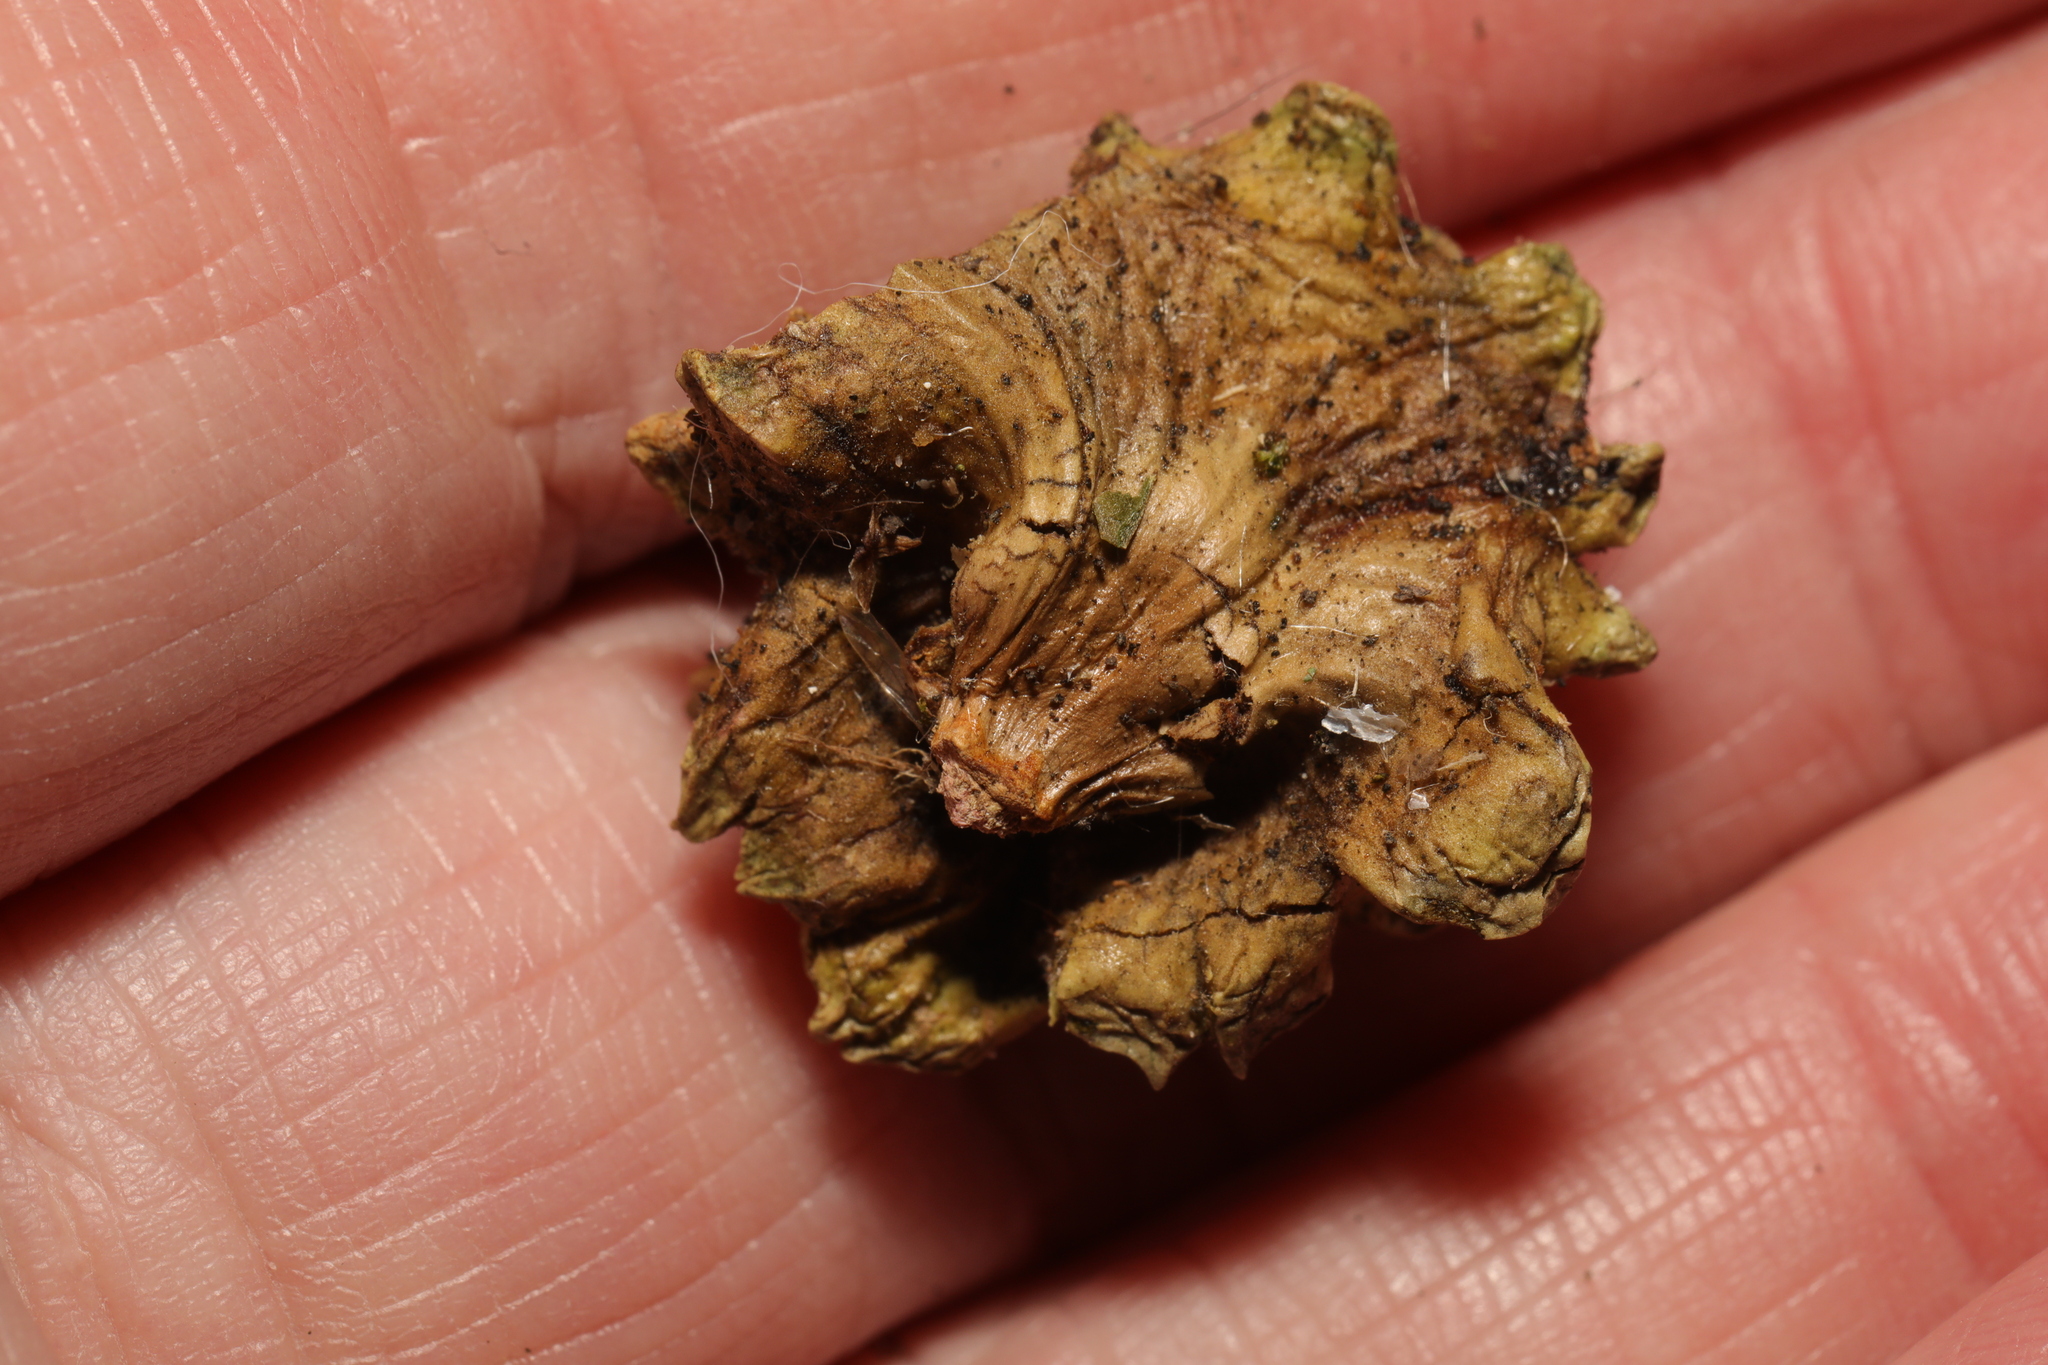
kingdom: Animalia
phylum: Arthropoda
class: Insecta
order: Hymenoptera
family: Cynipidae
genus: Andricus
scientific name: Andricus quercuscalicis
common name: Knopper gall
